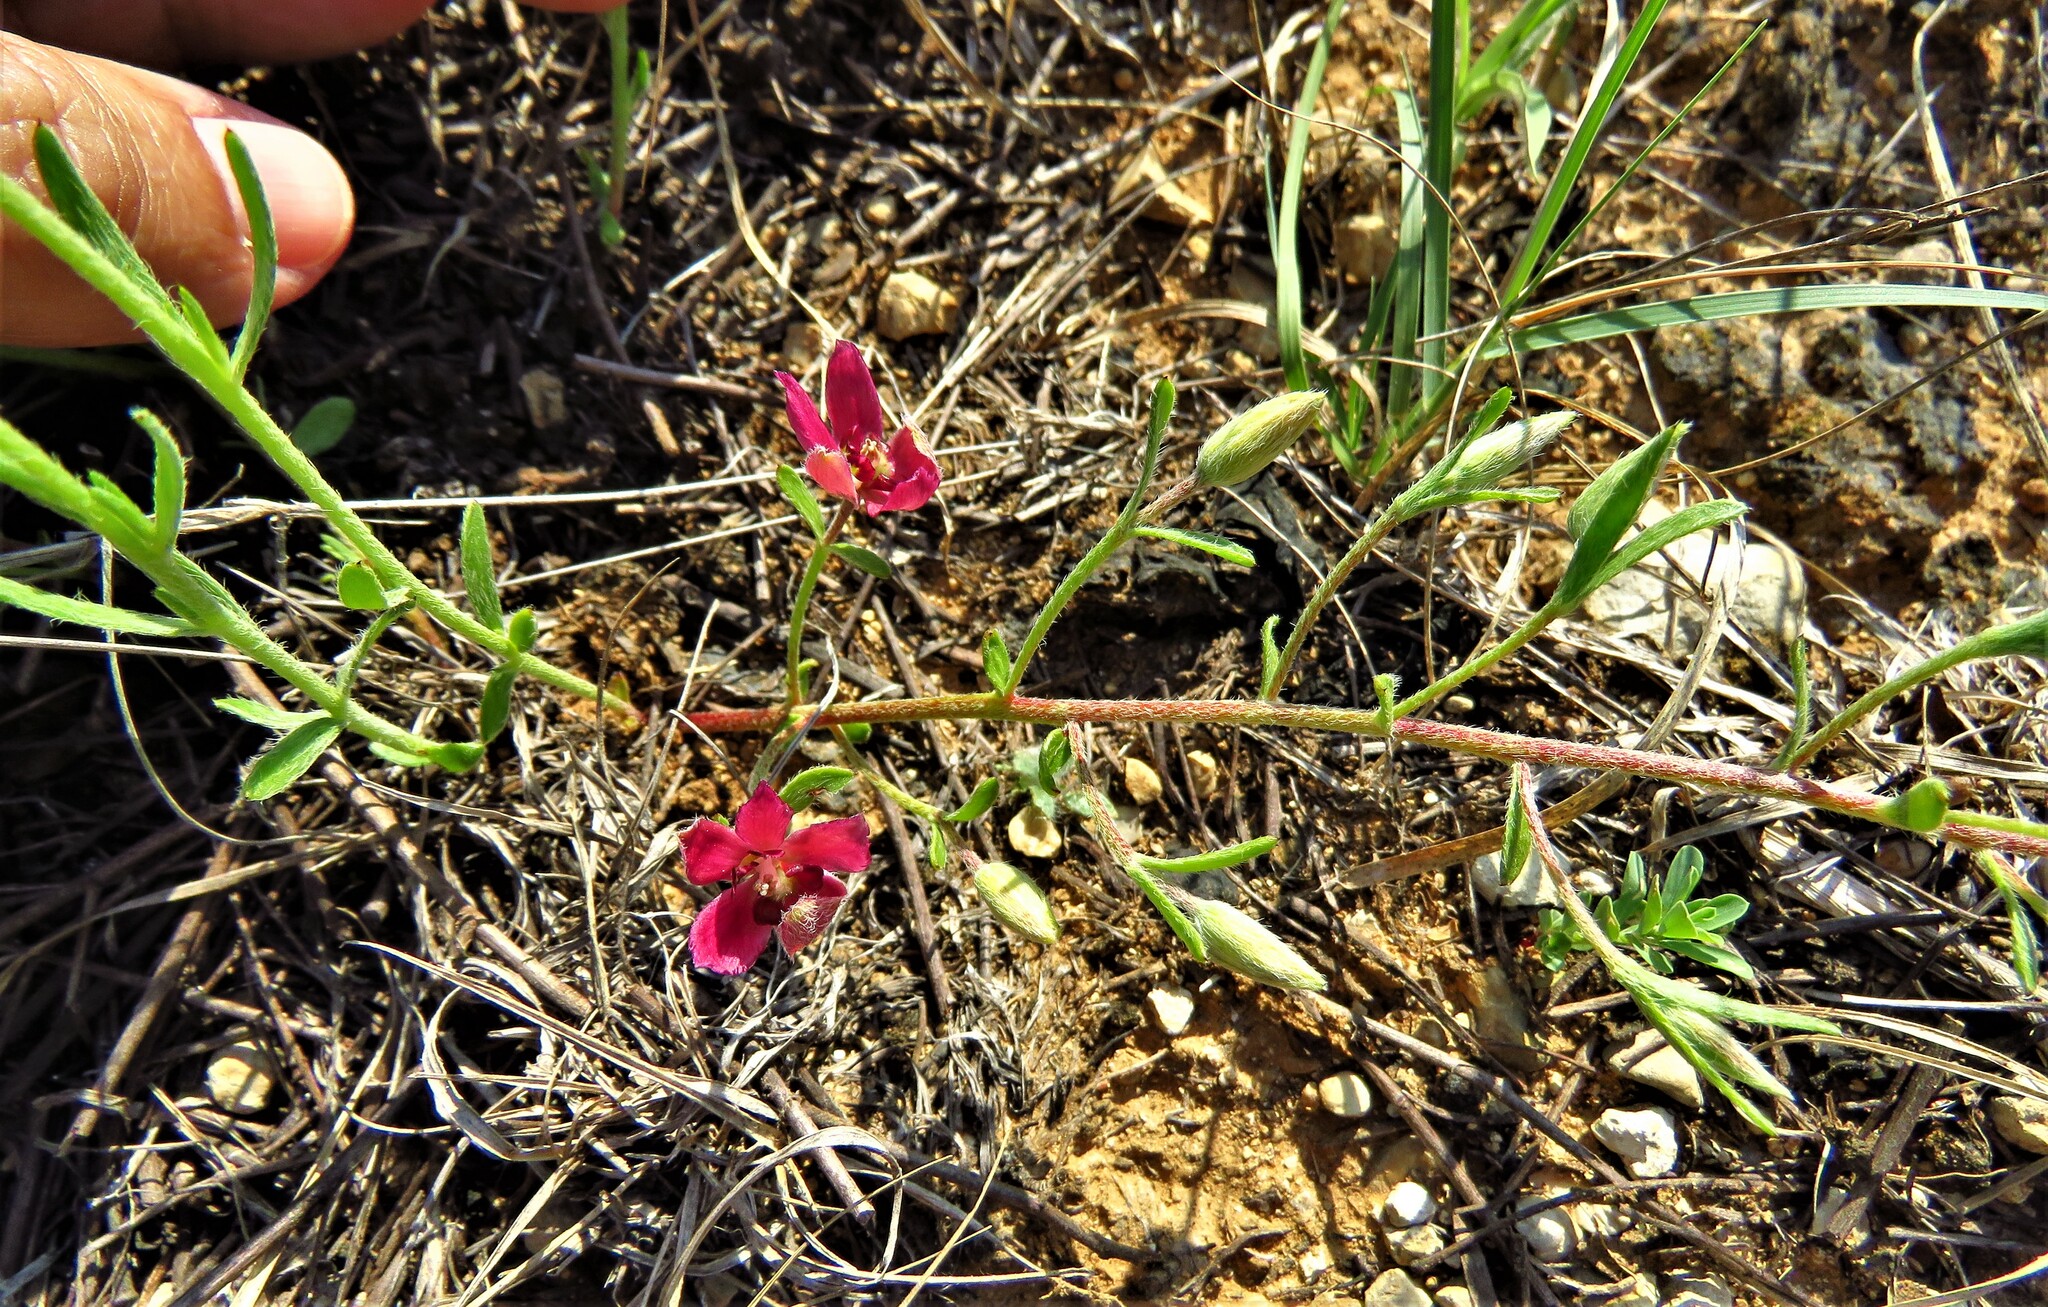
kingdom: Plantae
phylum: Tracheophyta
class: Magnoliopsida
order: Zygophyllales
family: Krameriaceae
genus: Krameria
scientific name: Krameria lanceolata
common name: Ratany
